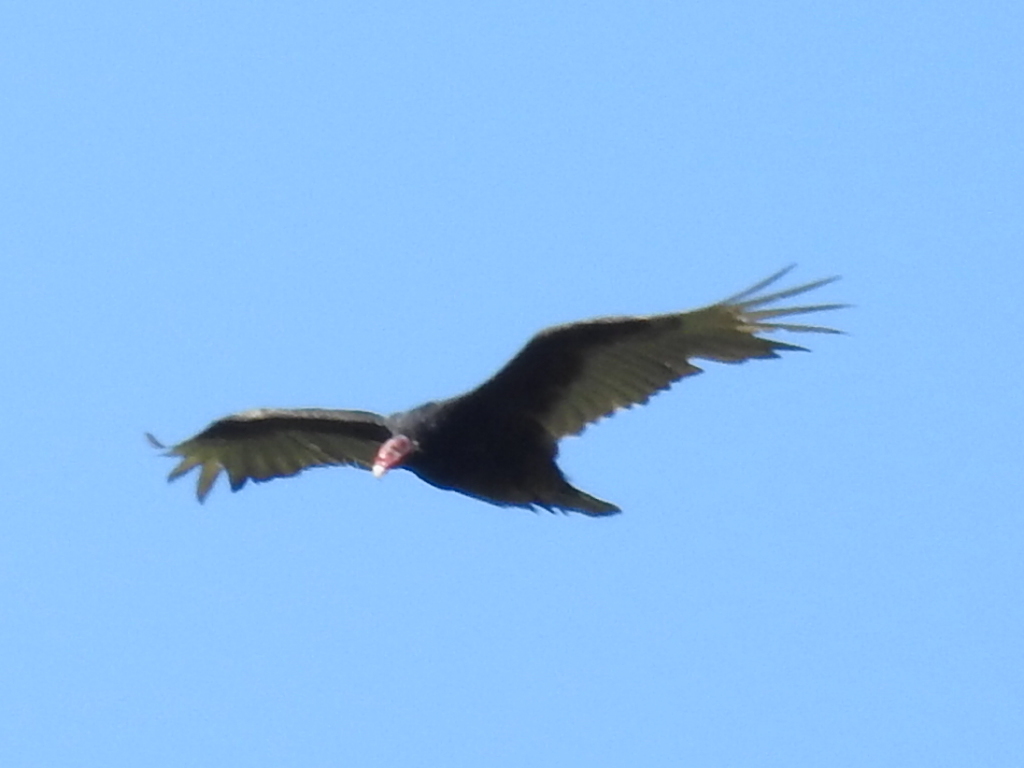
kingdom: Animalia
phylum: Chordata
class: Aves
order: Accipitriformes
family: Cathartidae
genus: Cathartes
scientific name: Cathartes aura
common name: Turkey vulture
